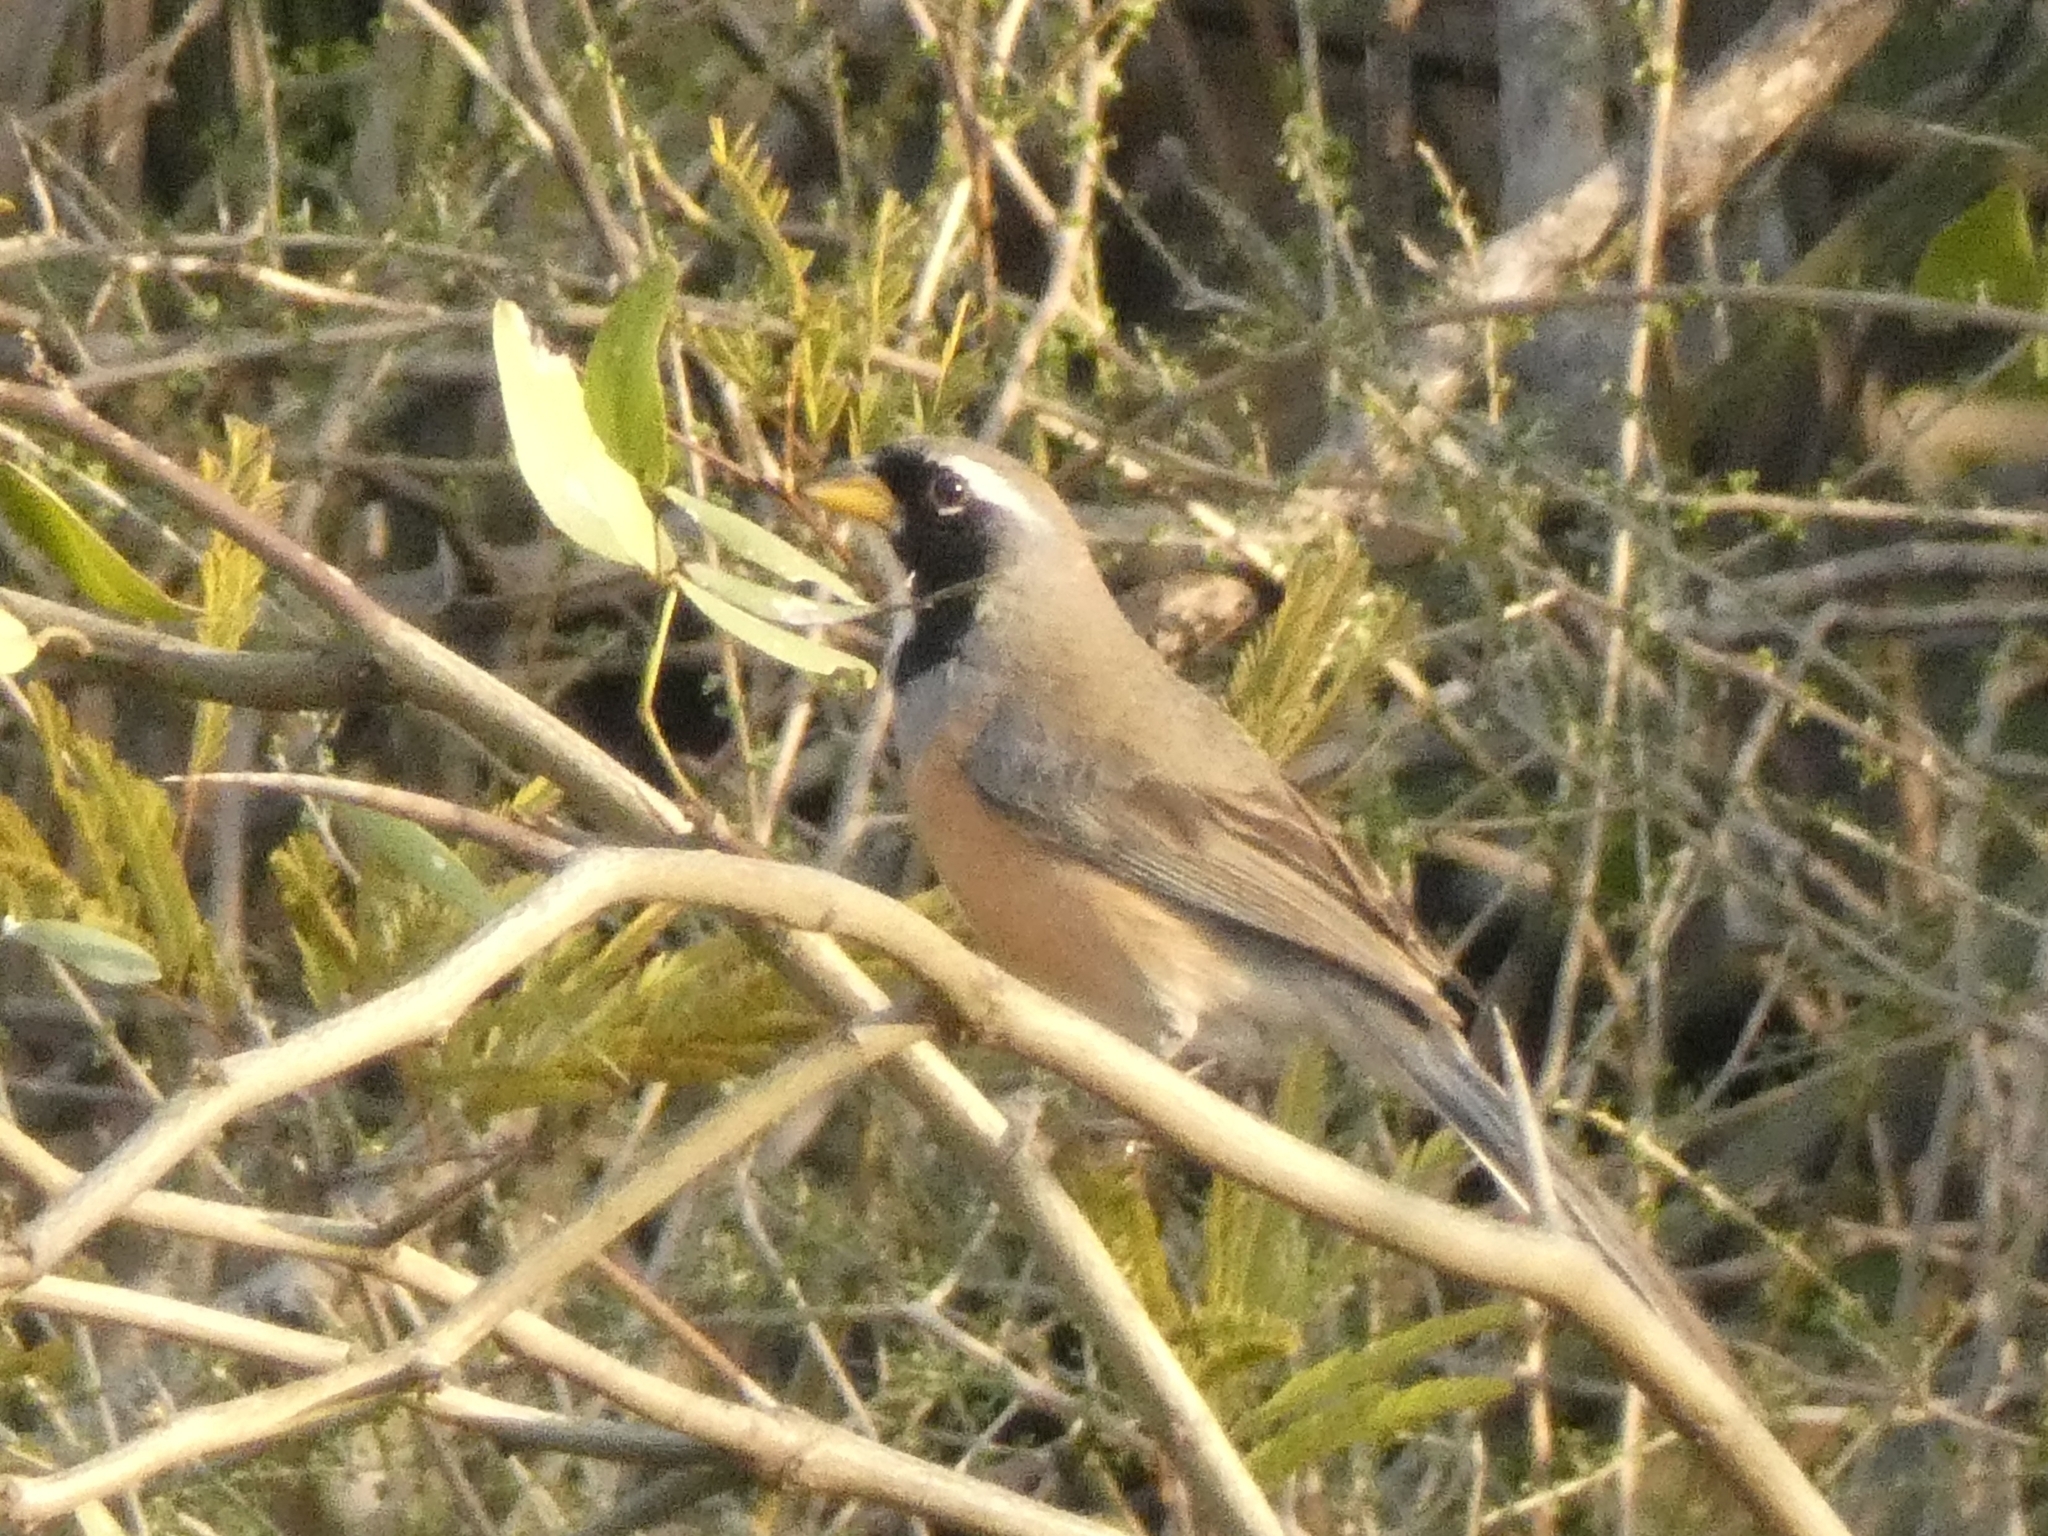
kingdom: Animalia
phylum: Chordata
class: Aves
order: Passeriformes
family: Thraupidae
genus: Saltatricula
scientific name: Saltatricula multicolor
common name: Many-colored chaco finch
